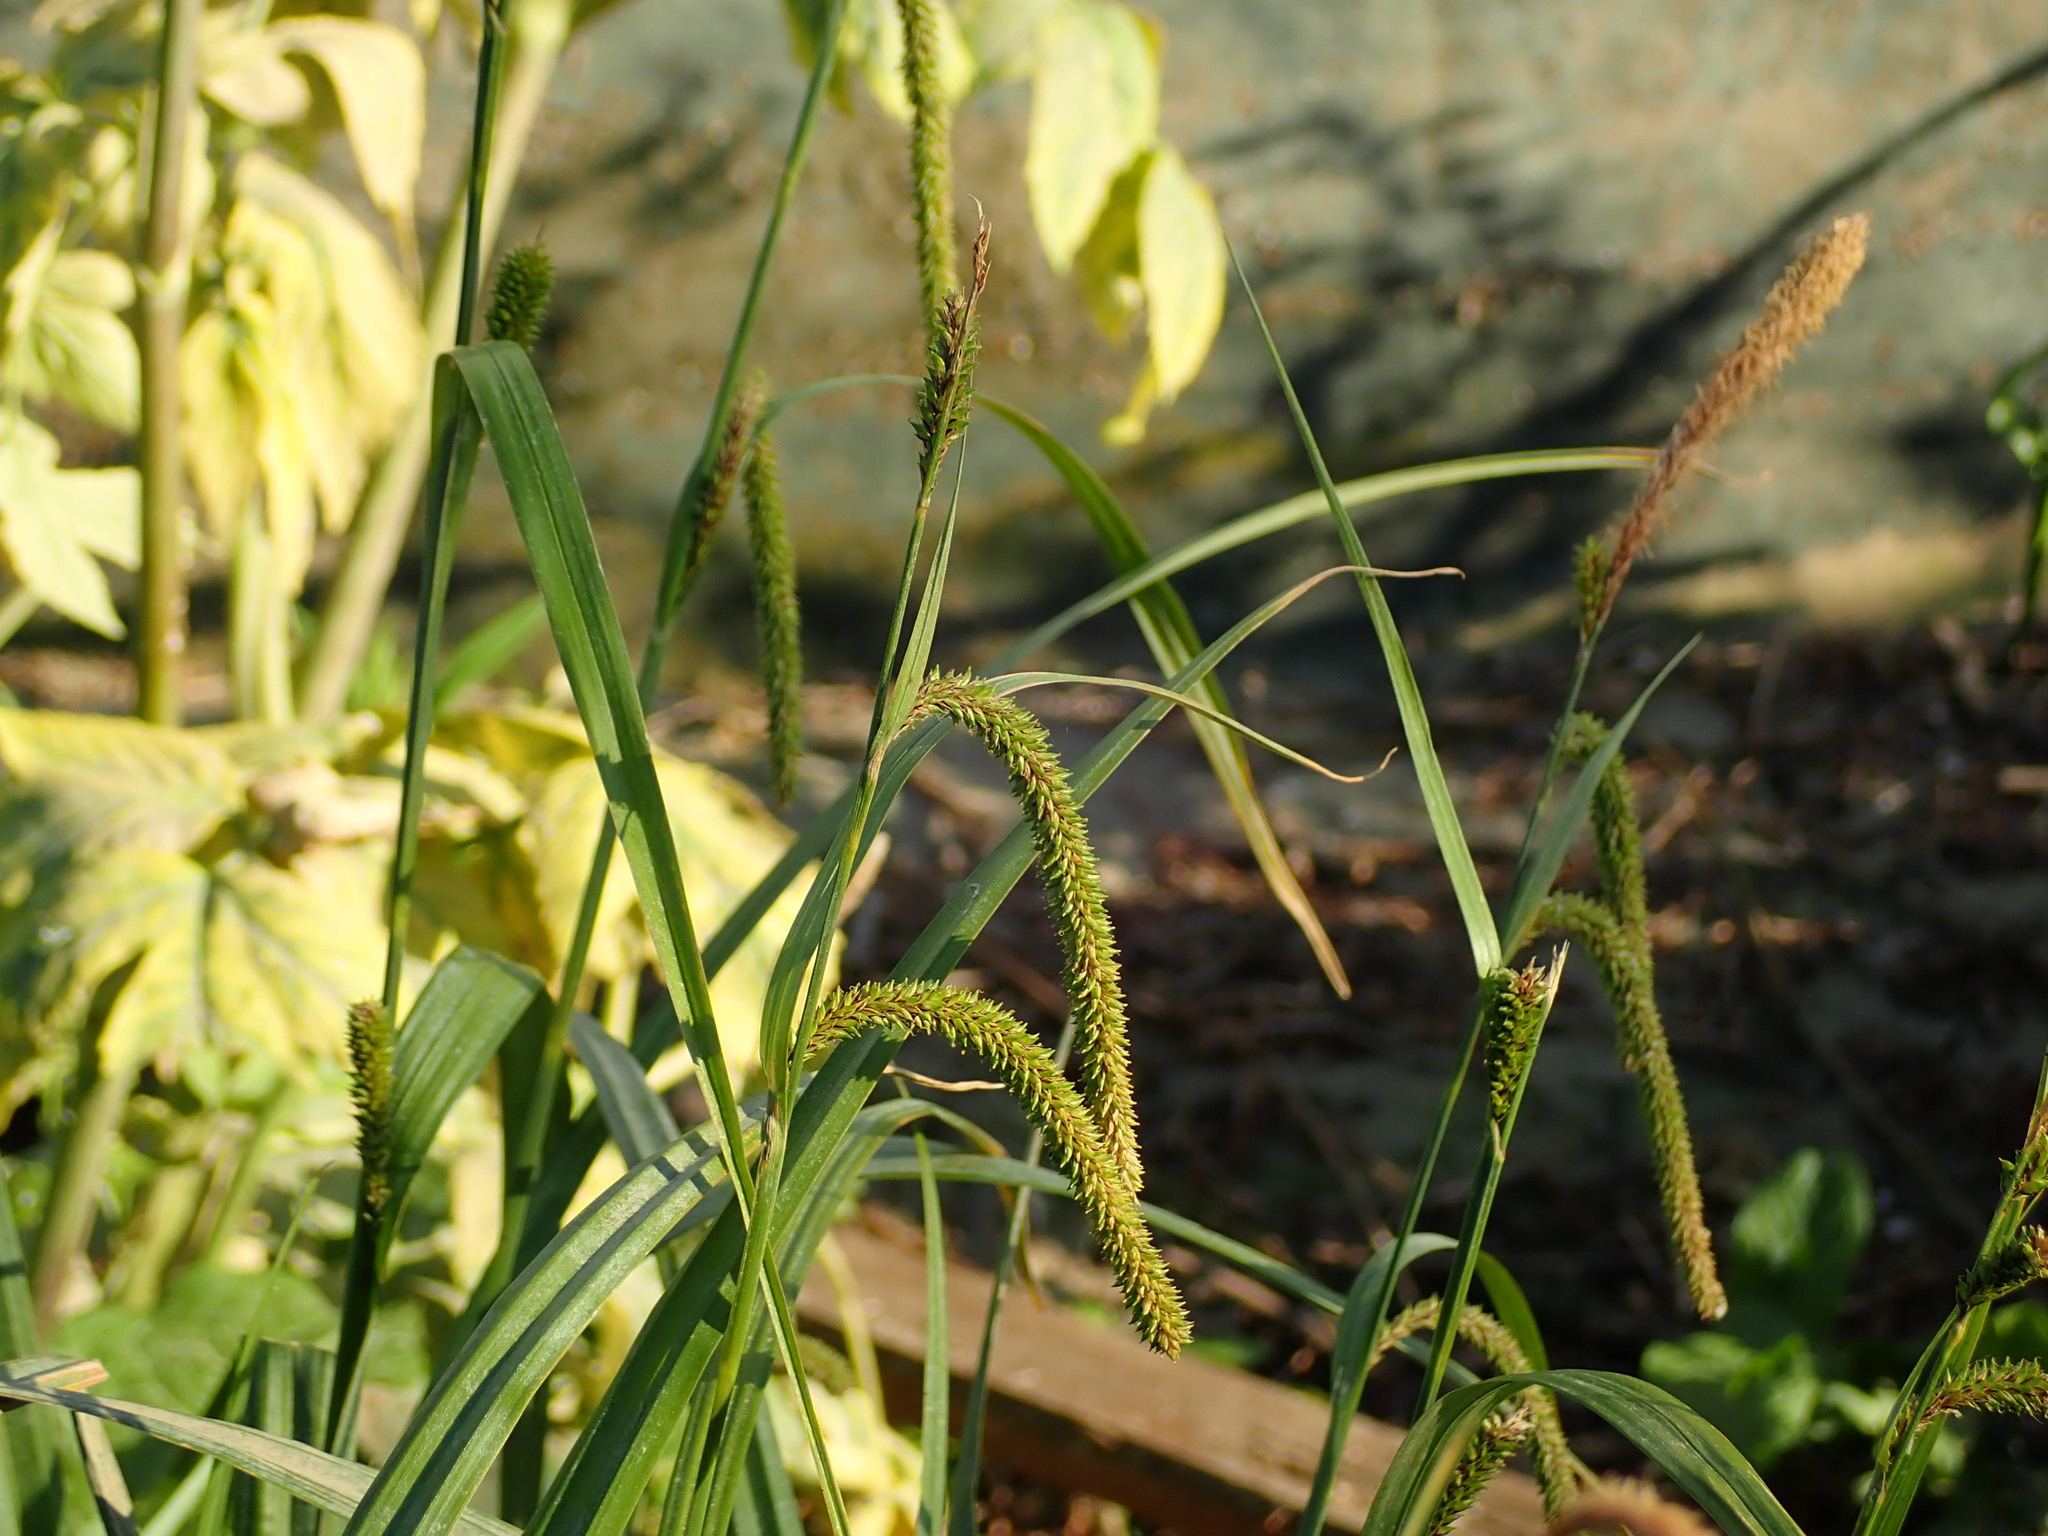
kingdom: Plantae
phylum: Tracheophyta
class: Liliopsida
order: Poales
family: Cyperaceae
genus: Carex
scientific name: Carex pendula
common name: Pendulous sedge
